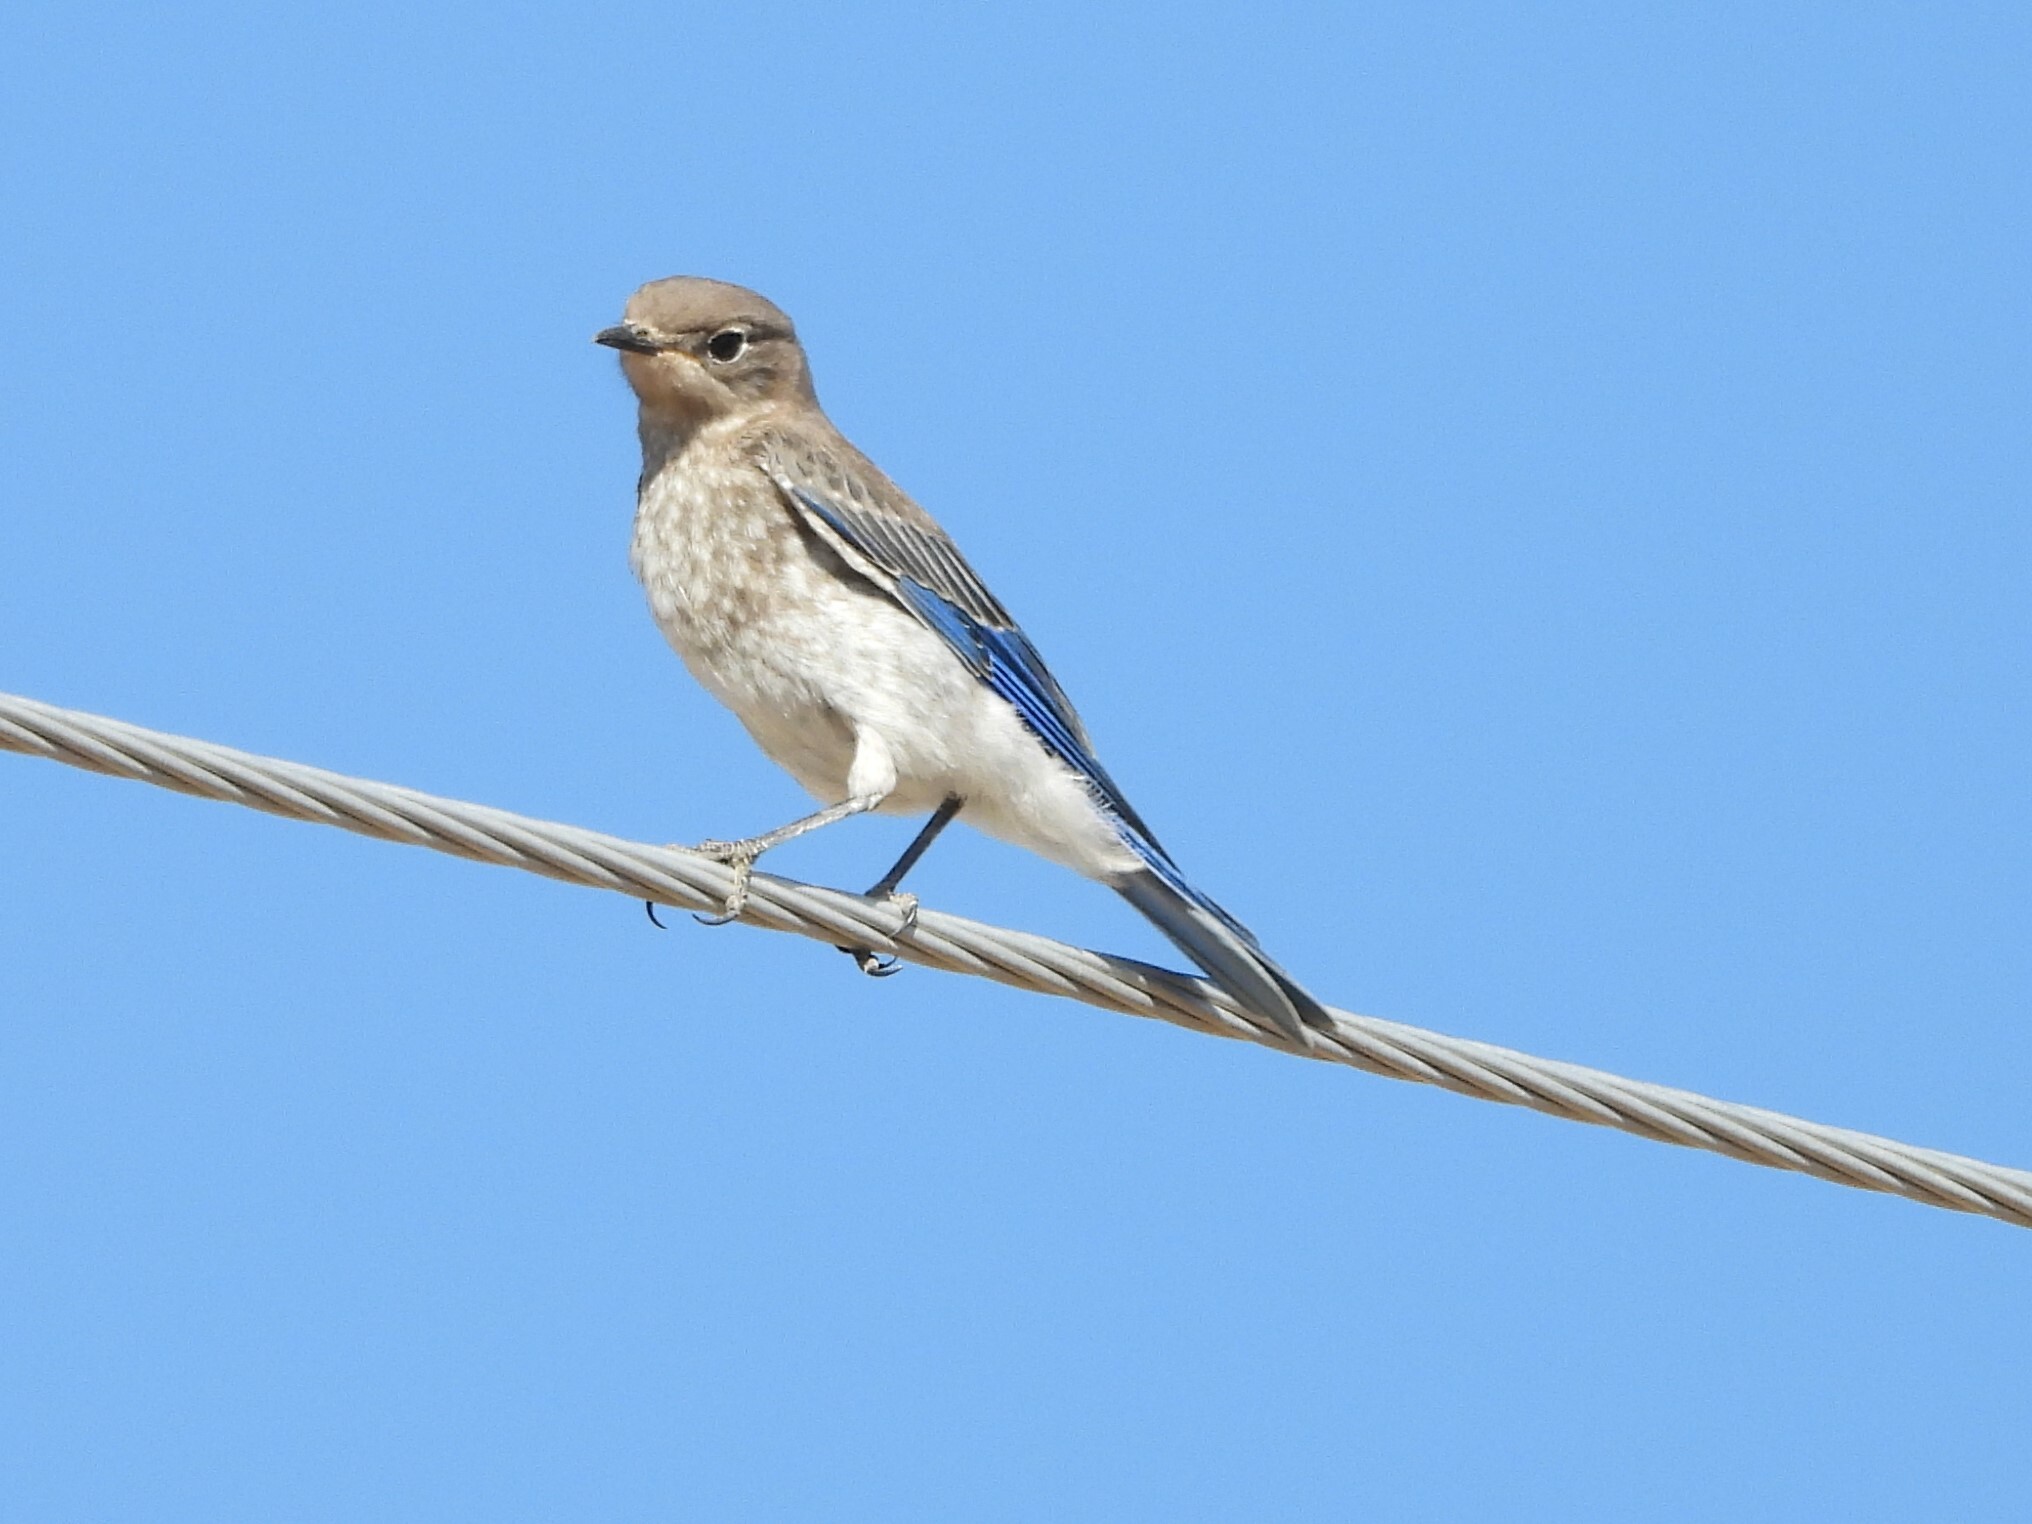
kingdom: Animalia
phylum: Chordata
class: Aves
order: Passeriformes
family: Turdidae
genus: Sialia
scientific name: Sialia currucoides
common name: Mountain bluebird
